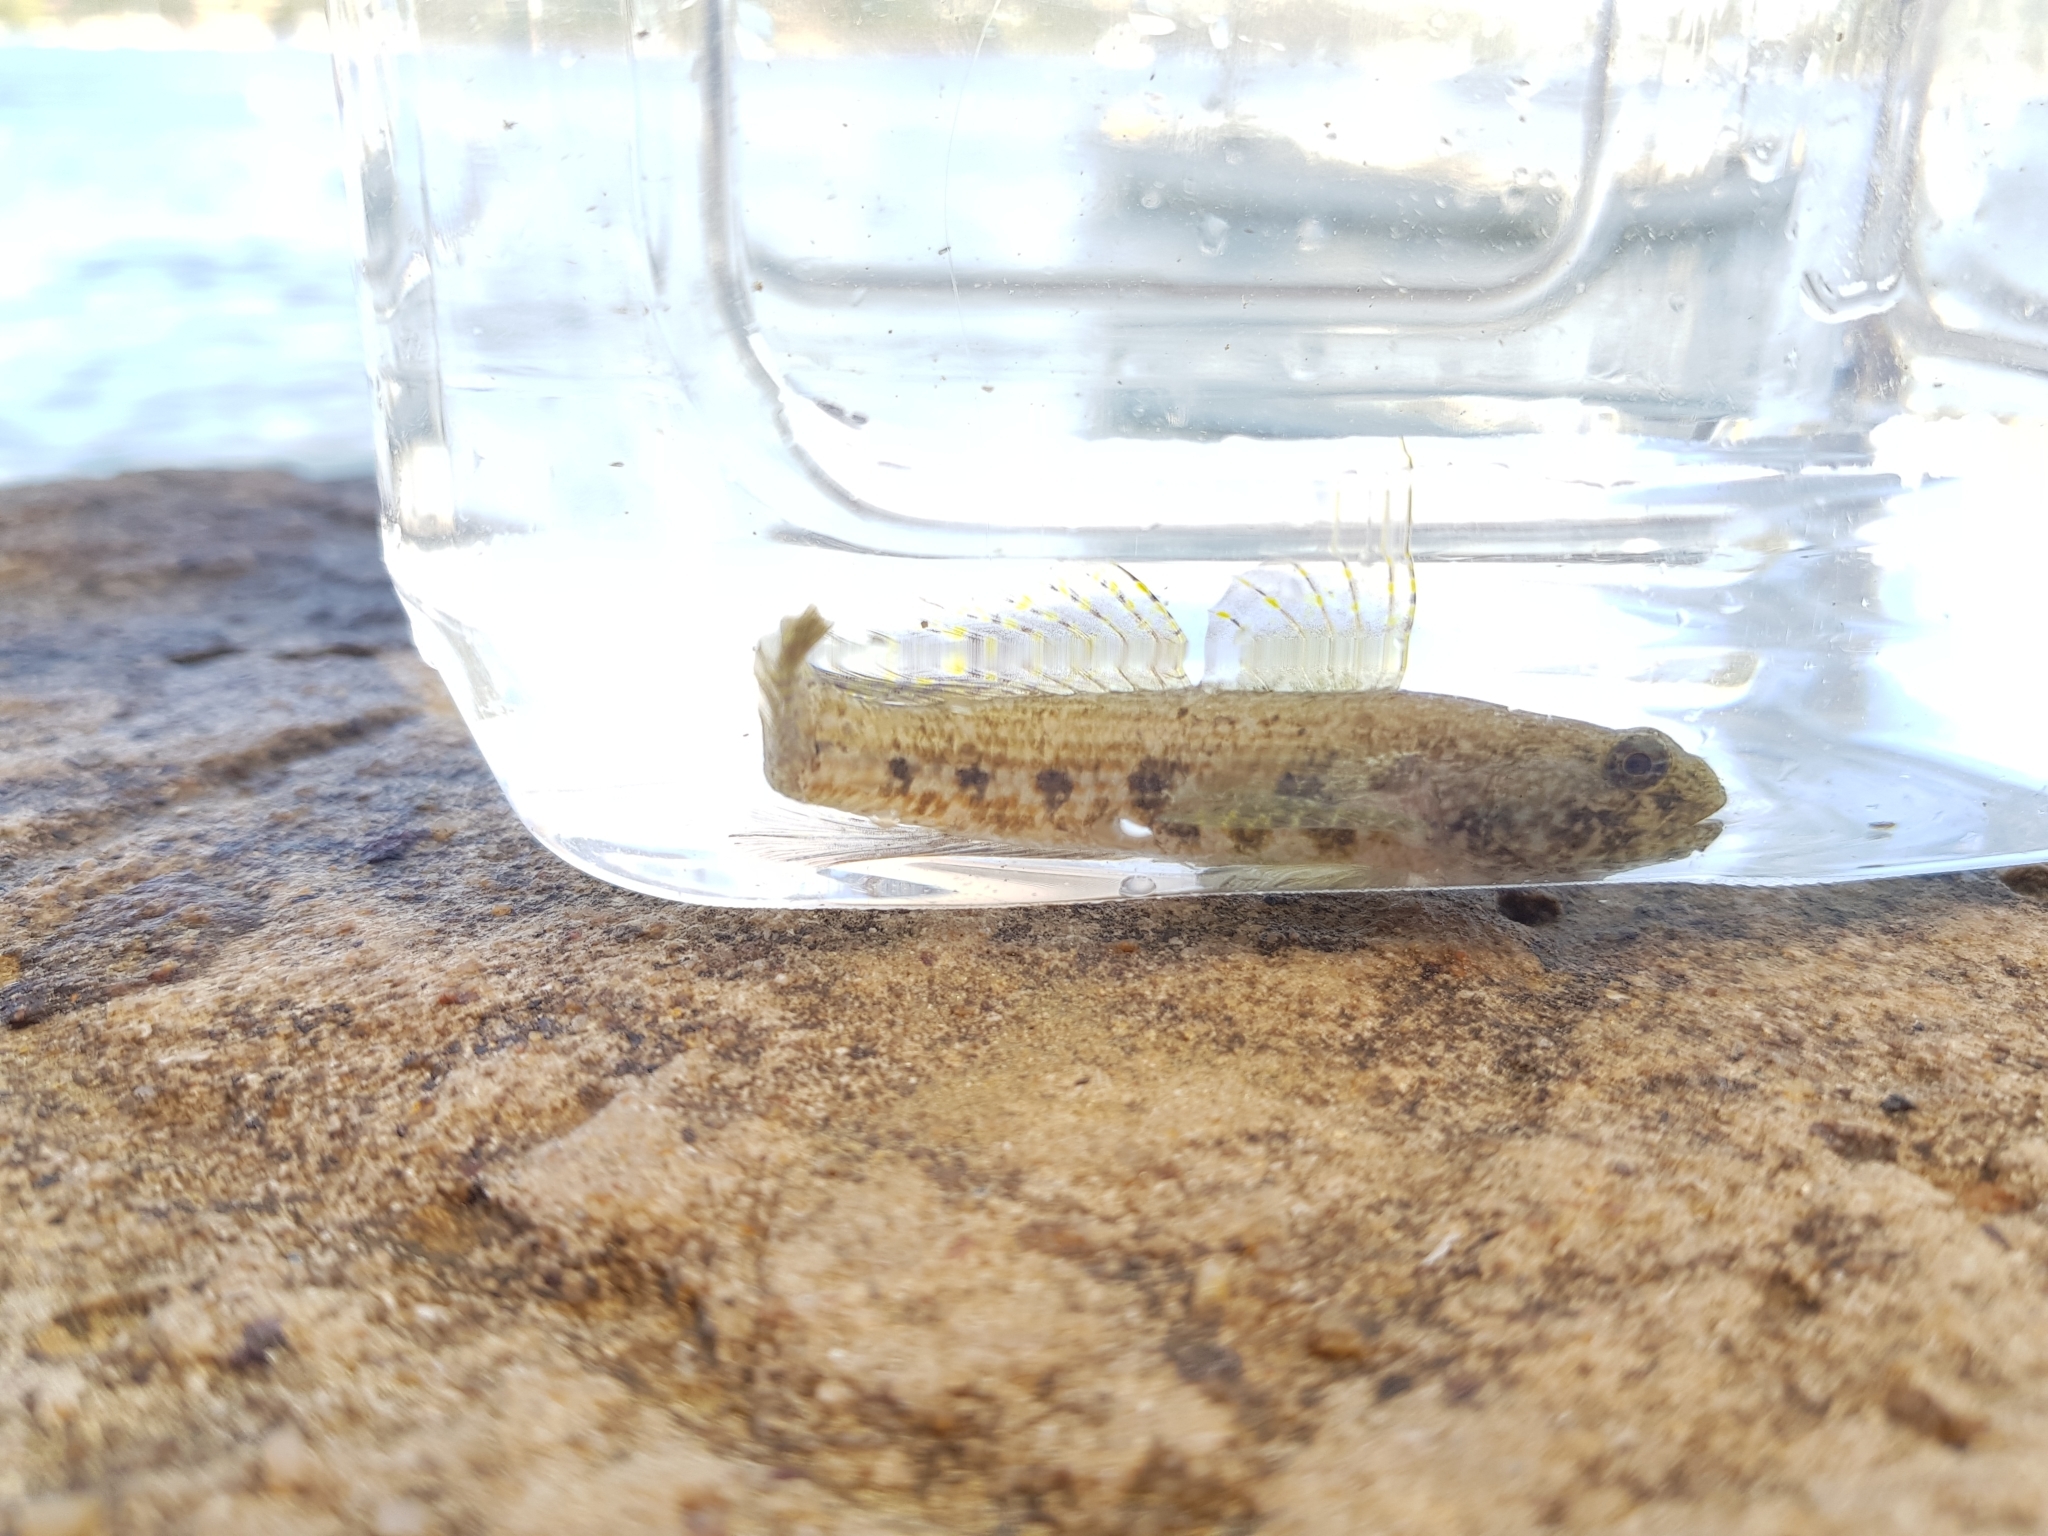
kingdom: Animalia
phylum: Chordata
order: Perciformes
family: Gobiidae
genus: Bathygobius
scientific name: Bathygobius krefftii
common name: Frayedfin goby
